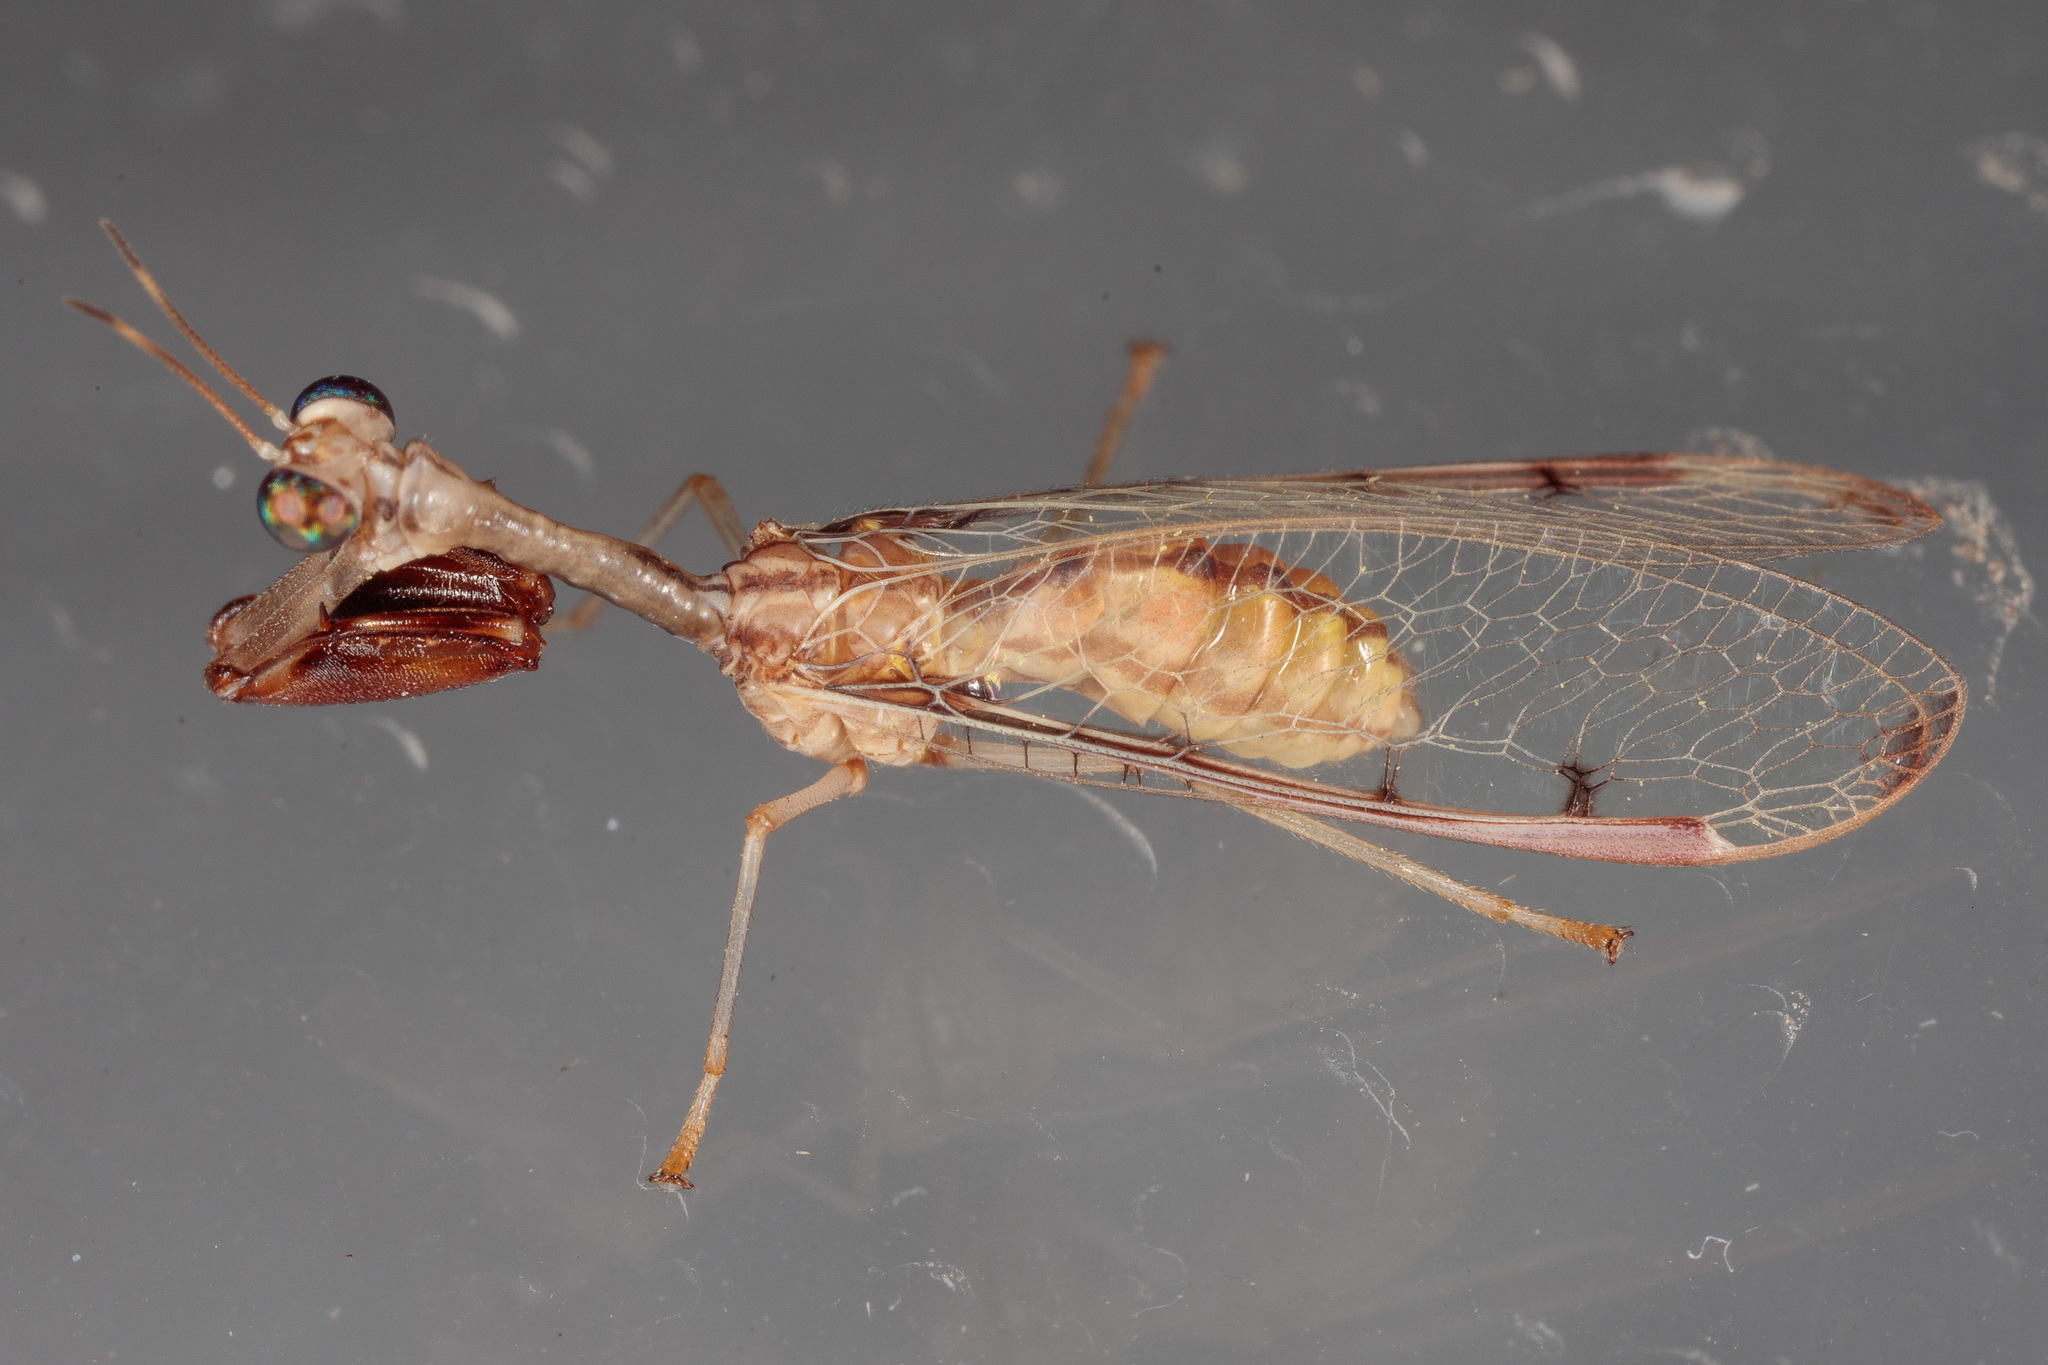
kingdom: Animalia
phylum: Arthropoda
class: Insecta
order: Neuroptera
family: Mantispidae
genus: Dicromantispa
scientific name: Dicromantispa interrupta
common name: Four-spotted mantidfly
